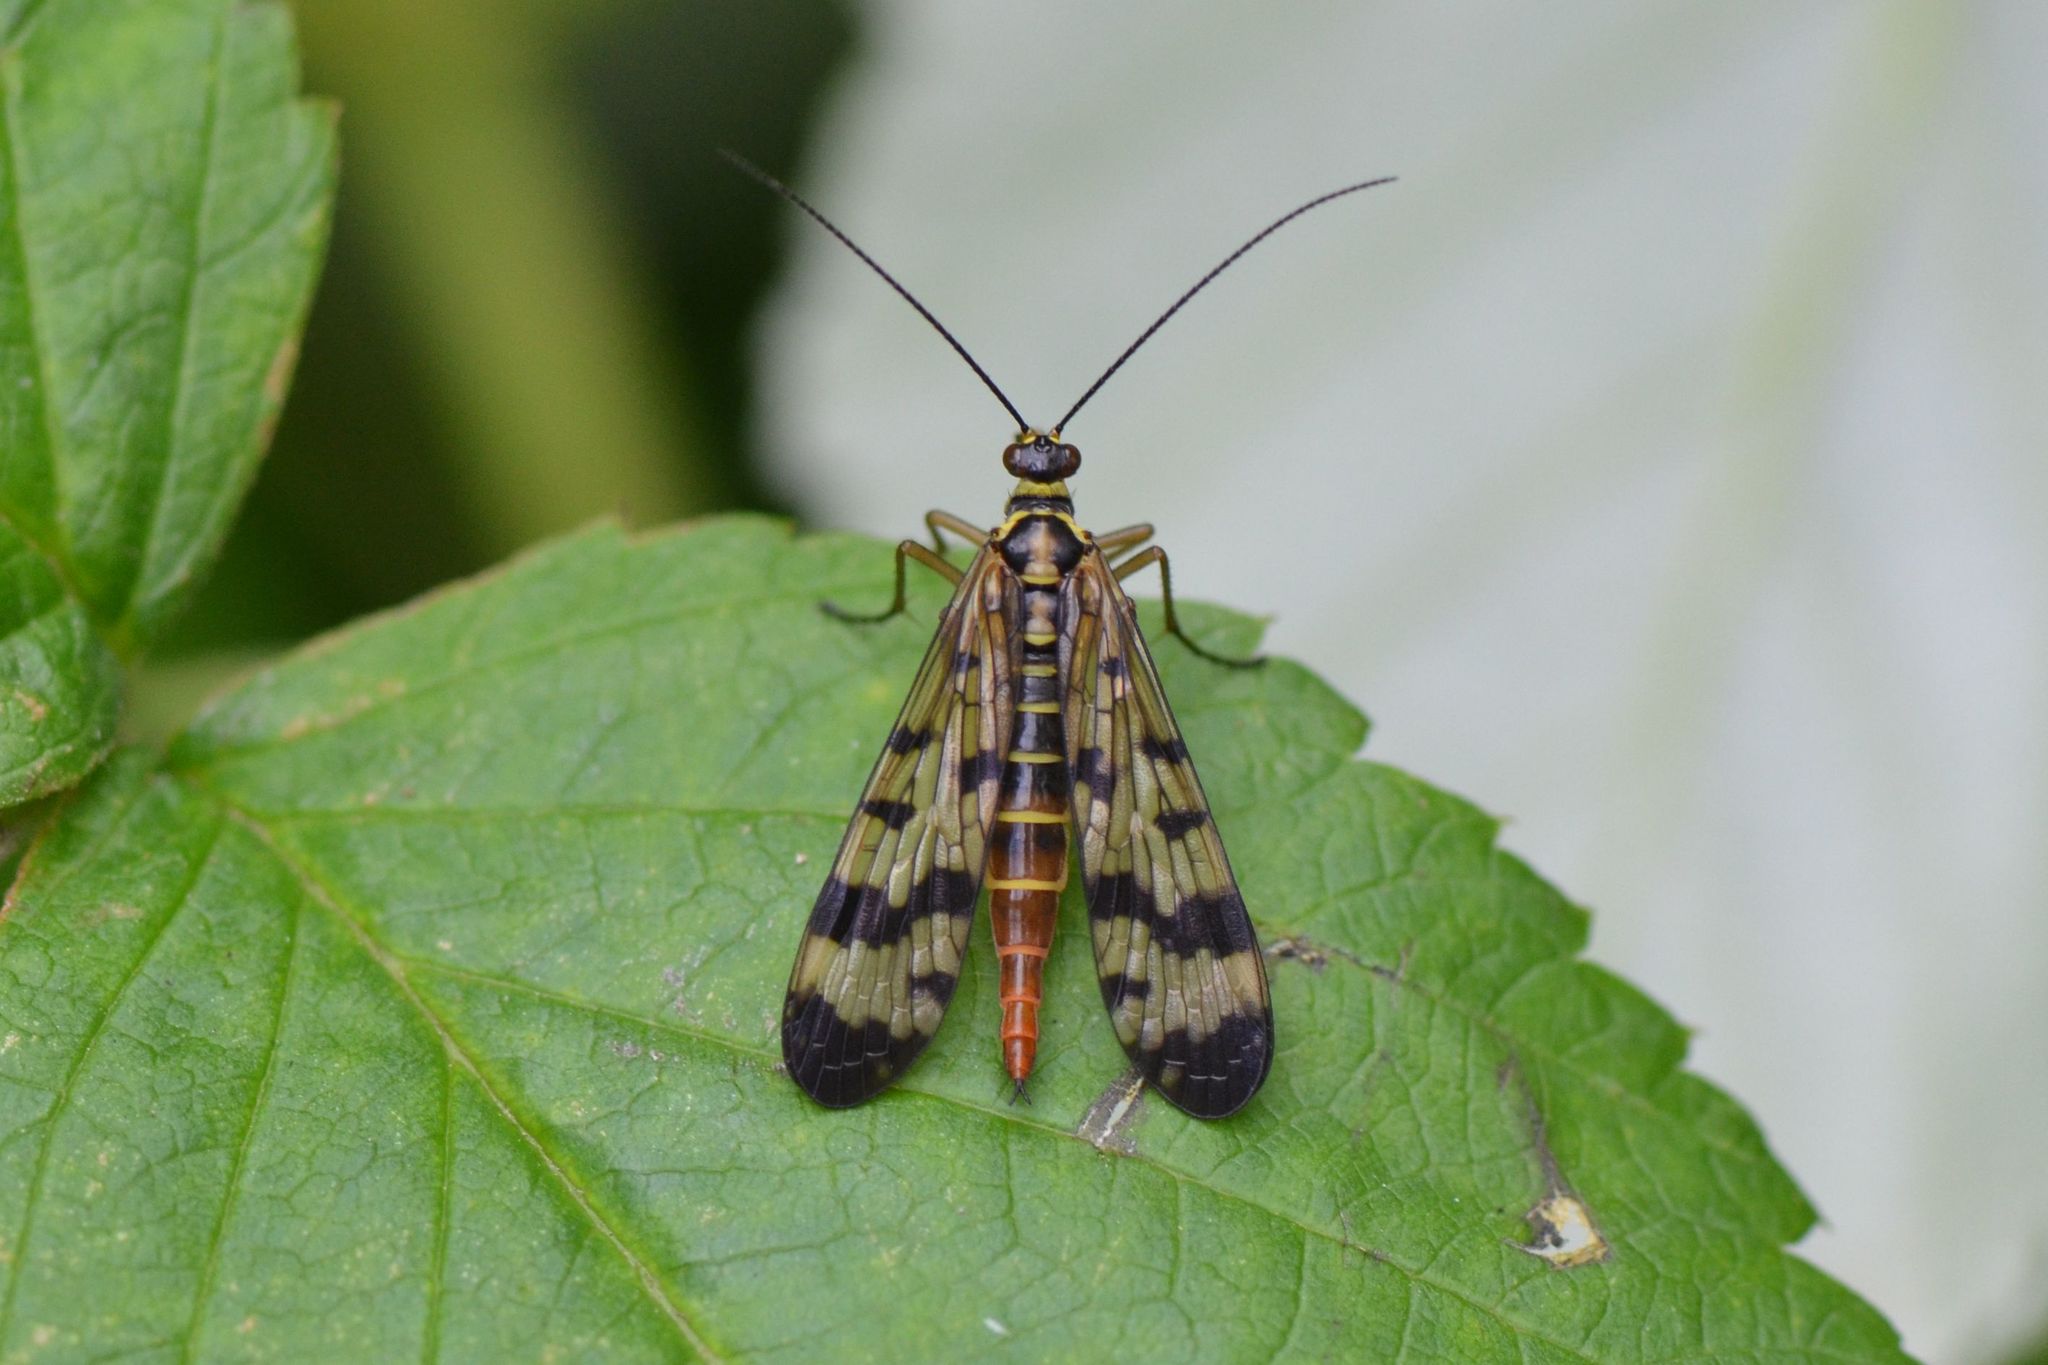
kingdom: Animalia
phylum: Arthropoda
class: Insecta
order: Mecoptera
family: Panorpidae
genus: Panorpa
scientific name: Panorpa communis
